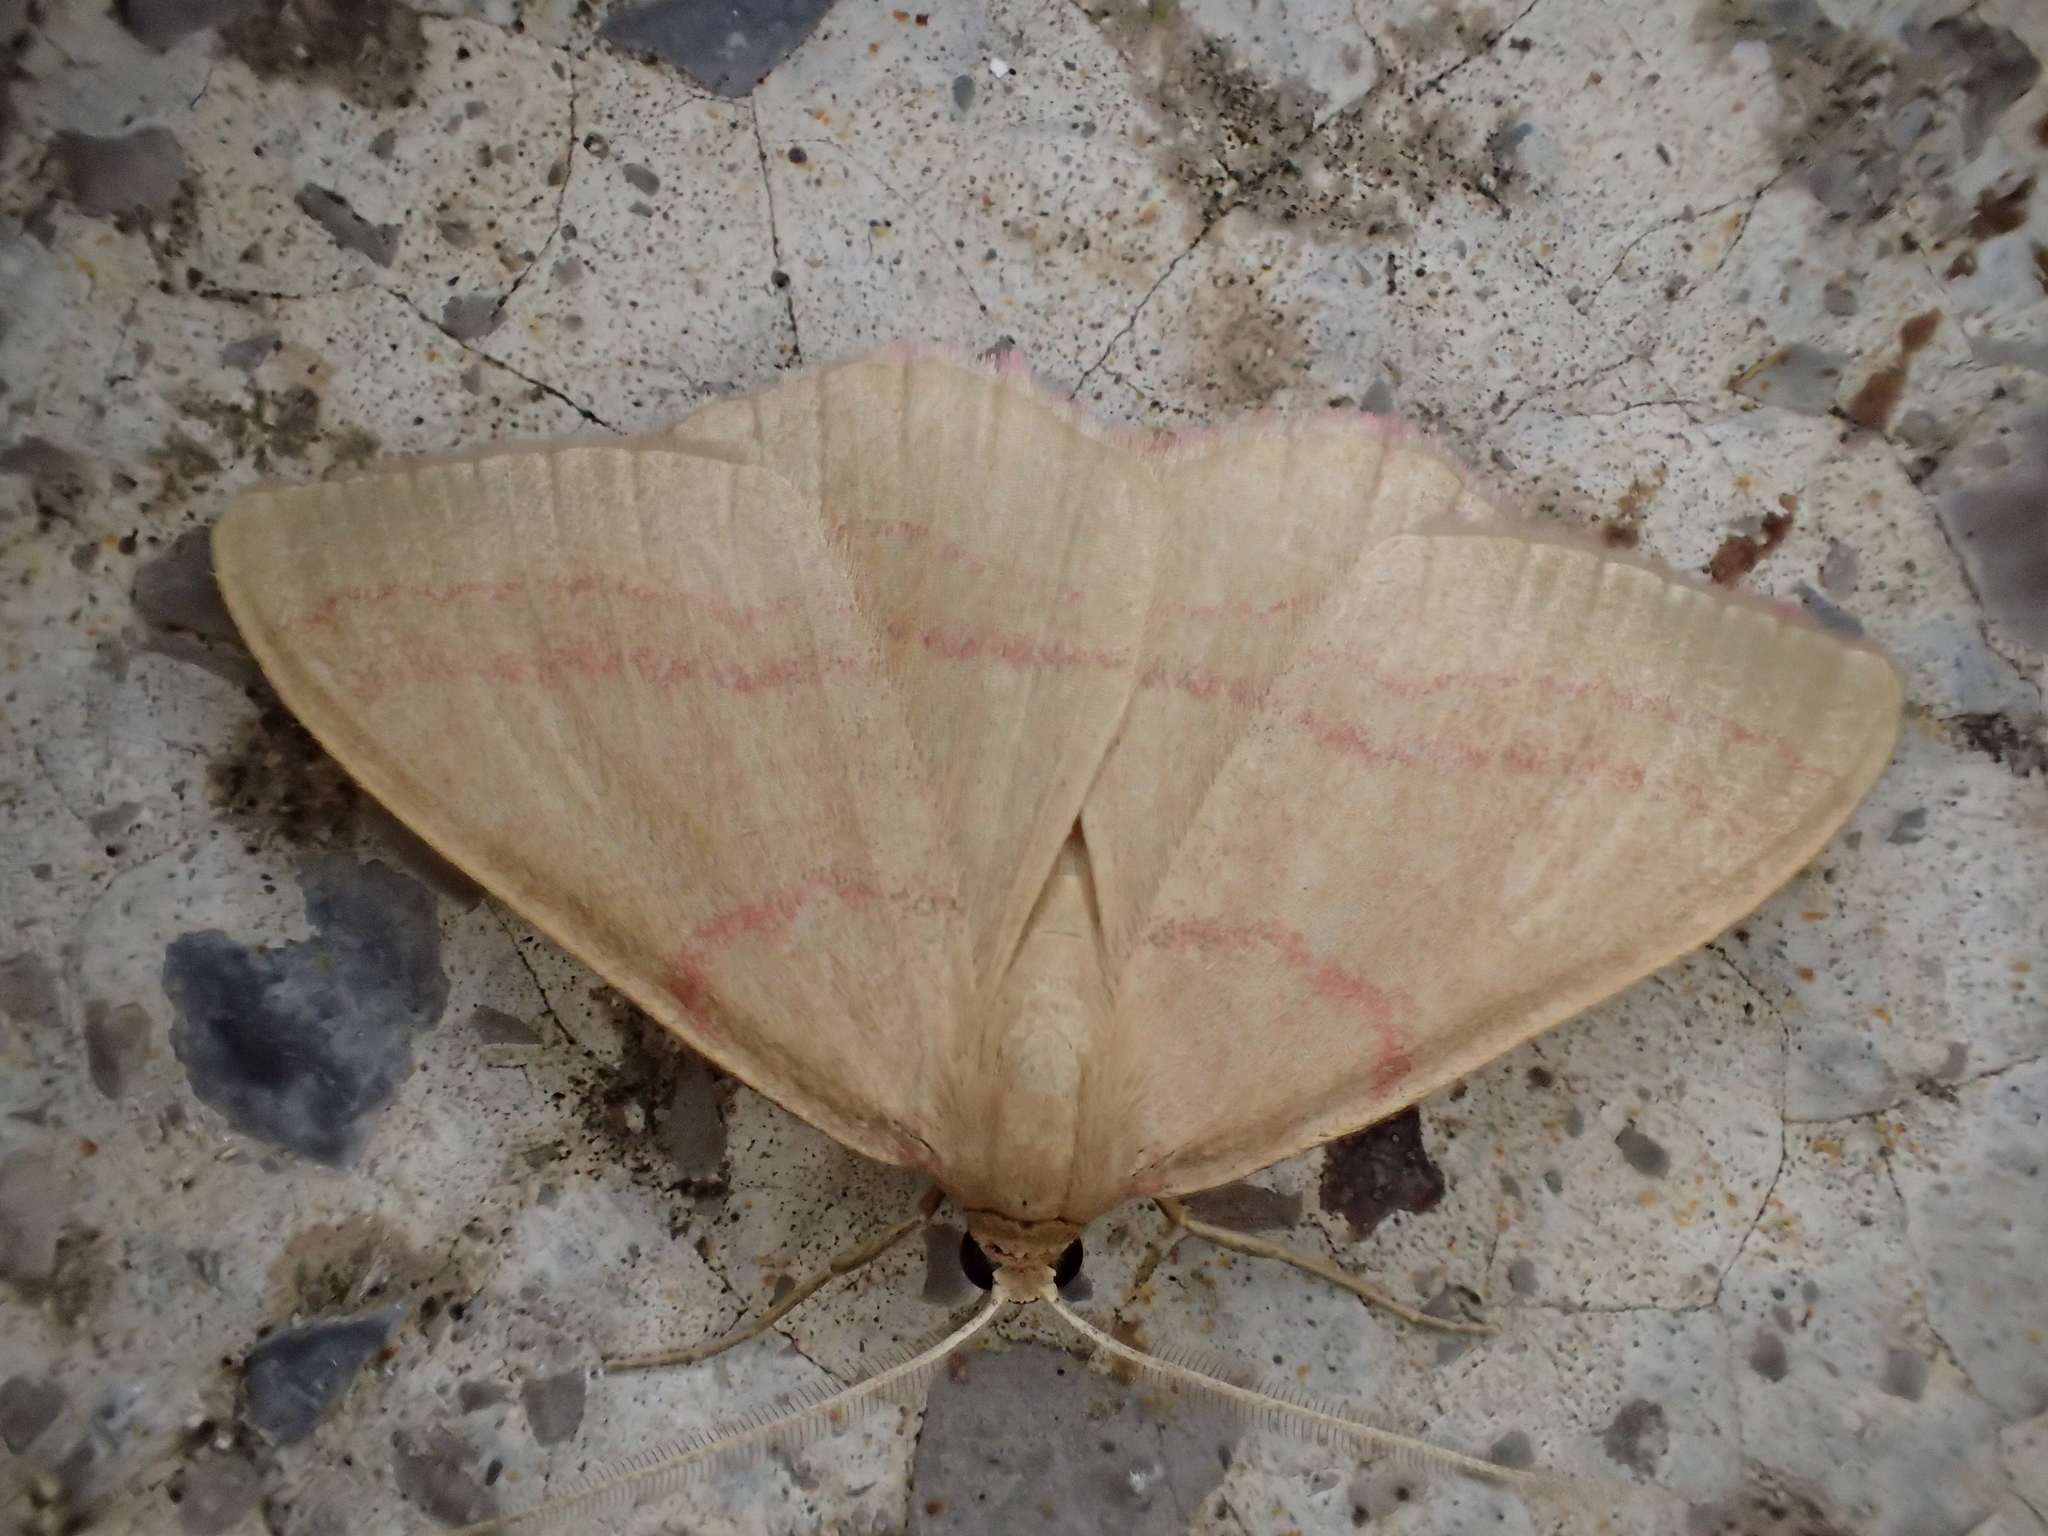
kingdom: Animalia
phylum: Arthropoda
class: Insecta
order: Lepidoptera
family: Geometridae
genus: Rhodostrophia
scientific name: Rhodostrophia calabra
